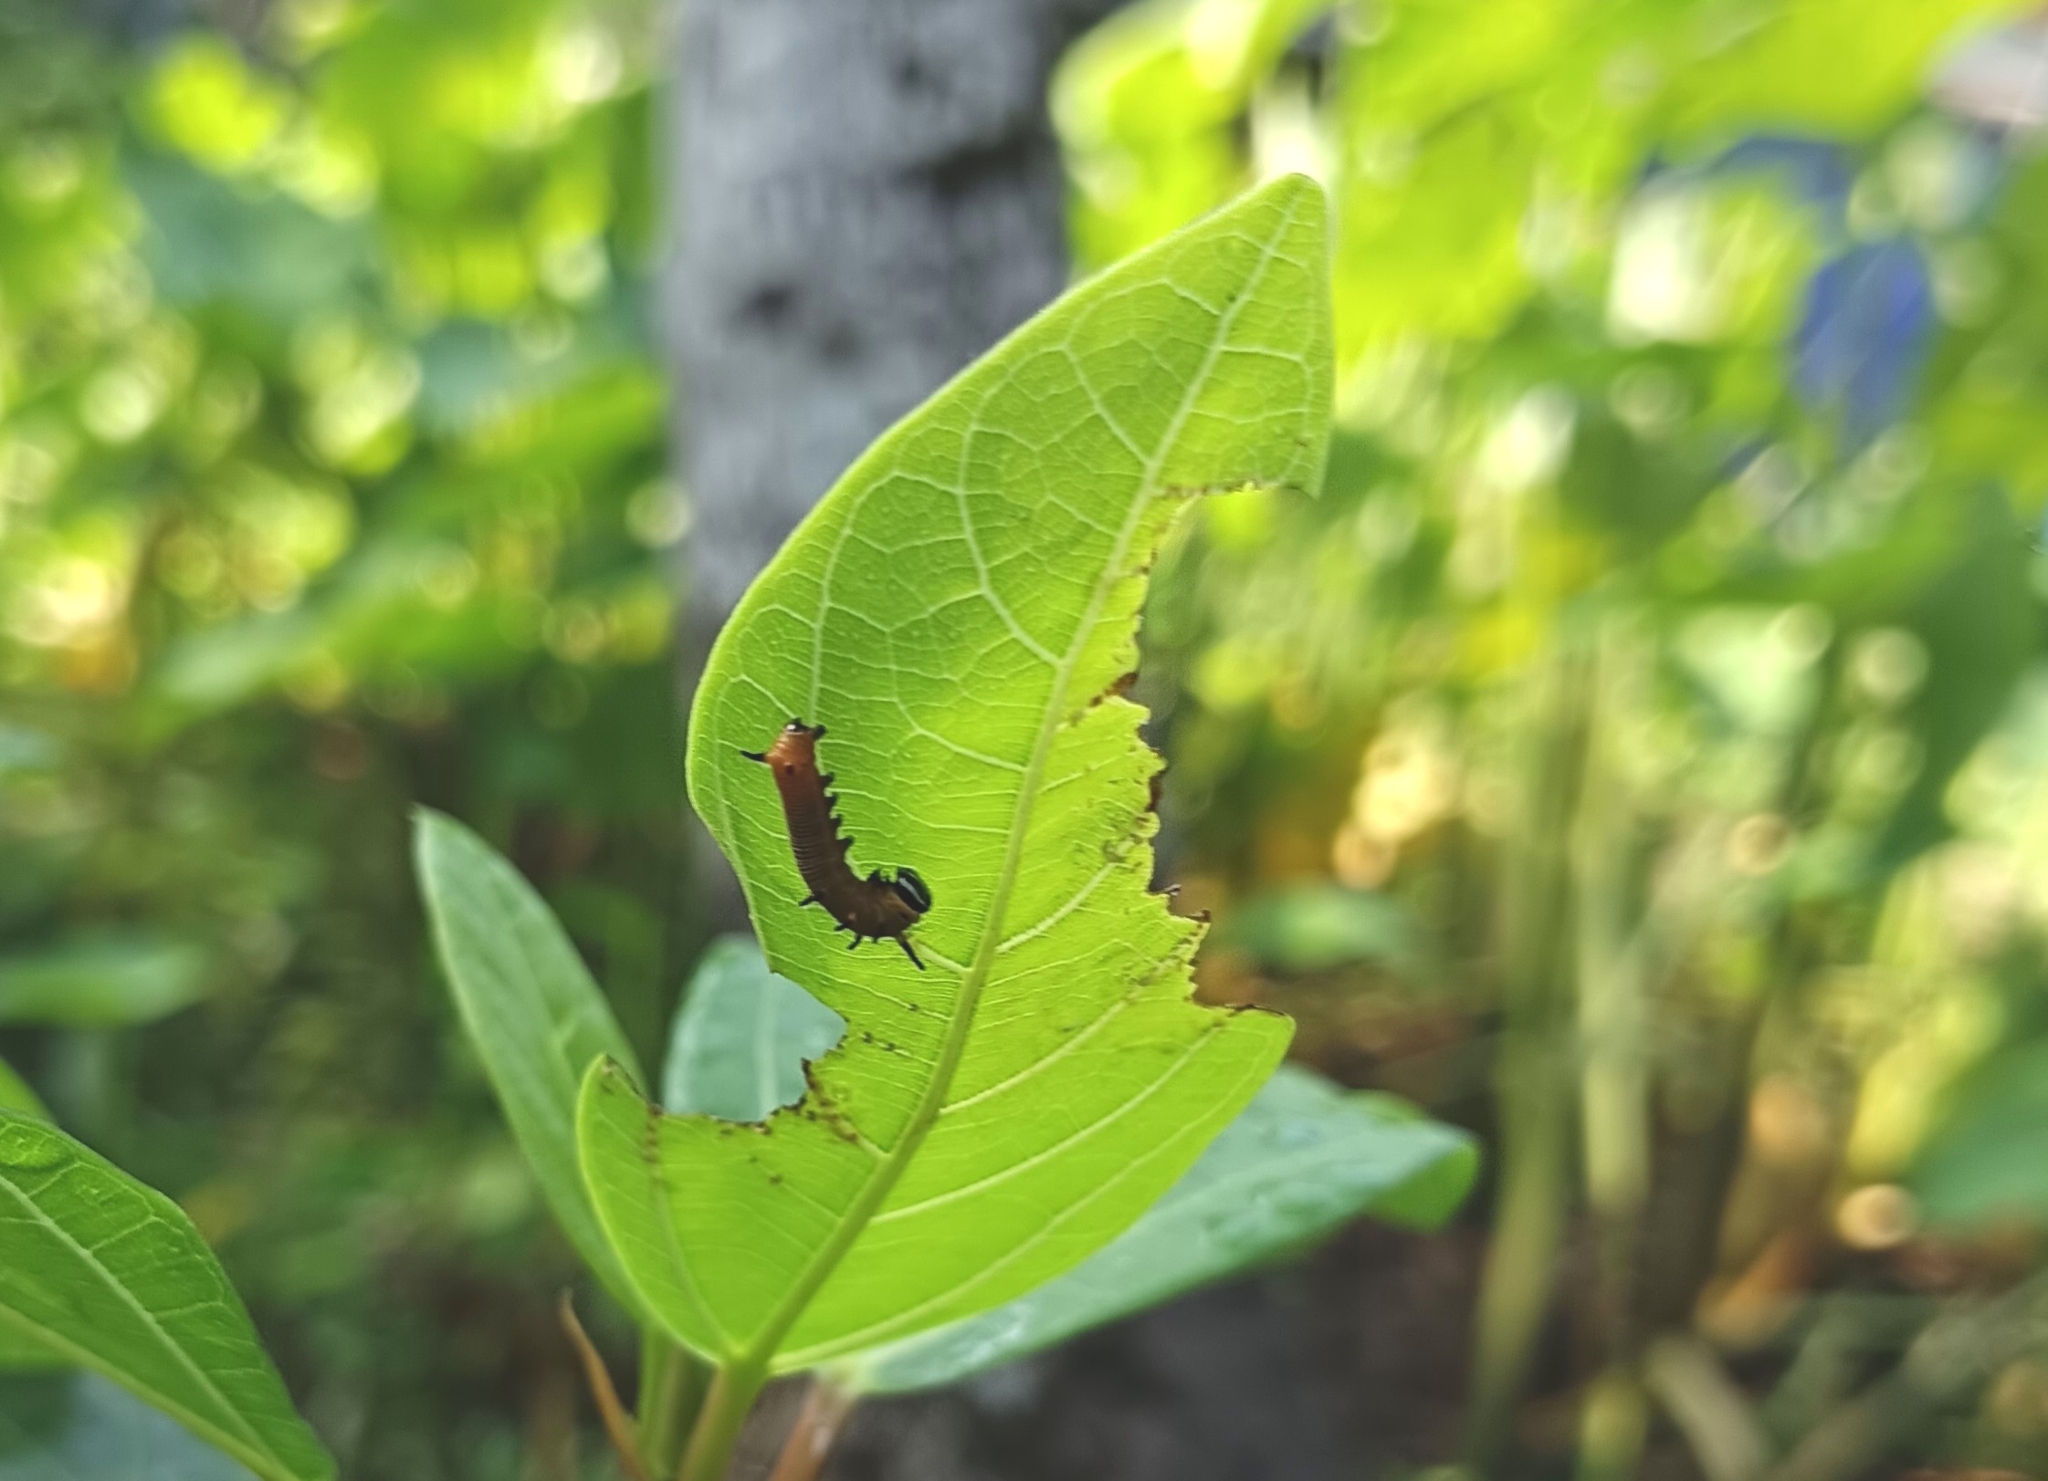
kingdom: Animalia
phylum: Arthropoda
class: Insecta
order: Lepidoptera
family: Nymphalidae
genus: Euploea
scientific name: Euploea core
